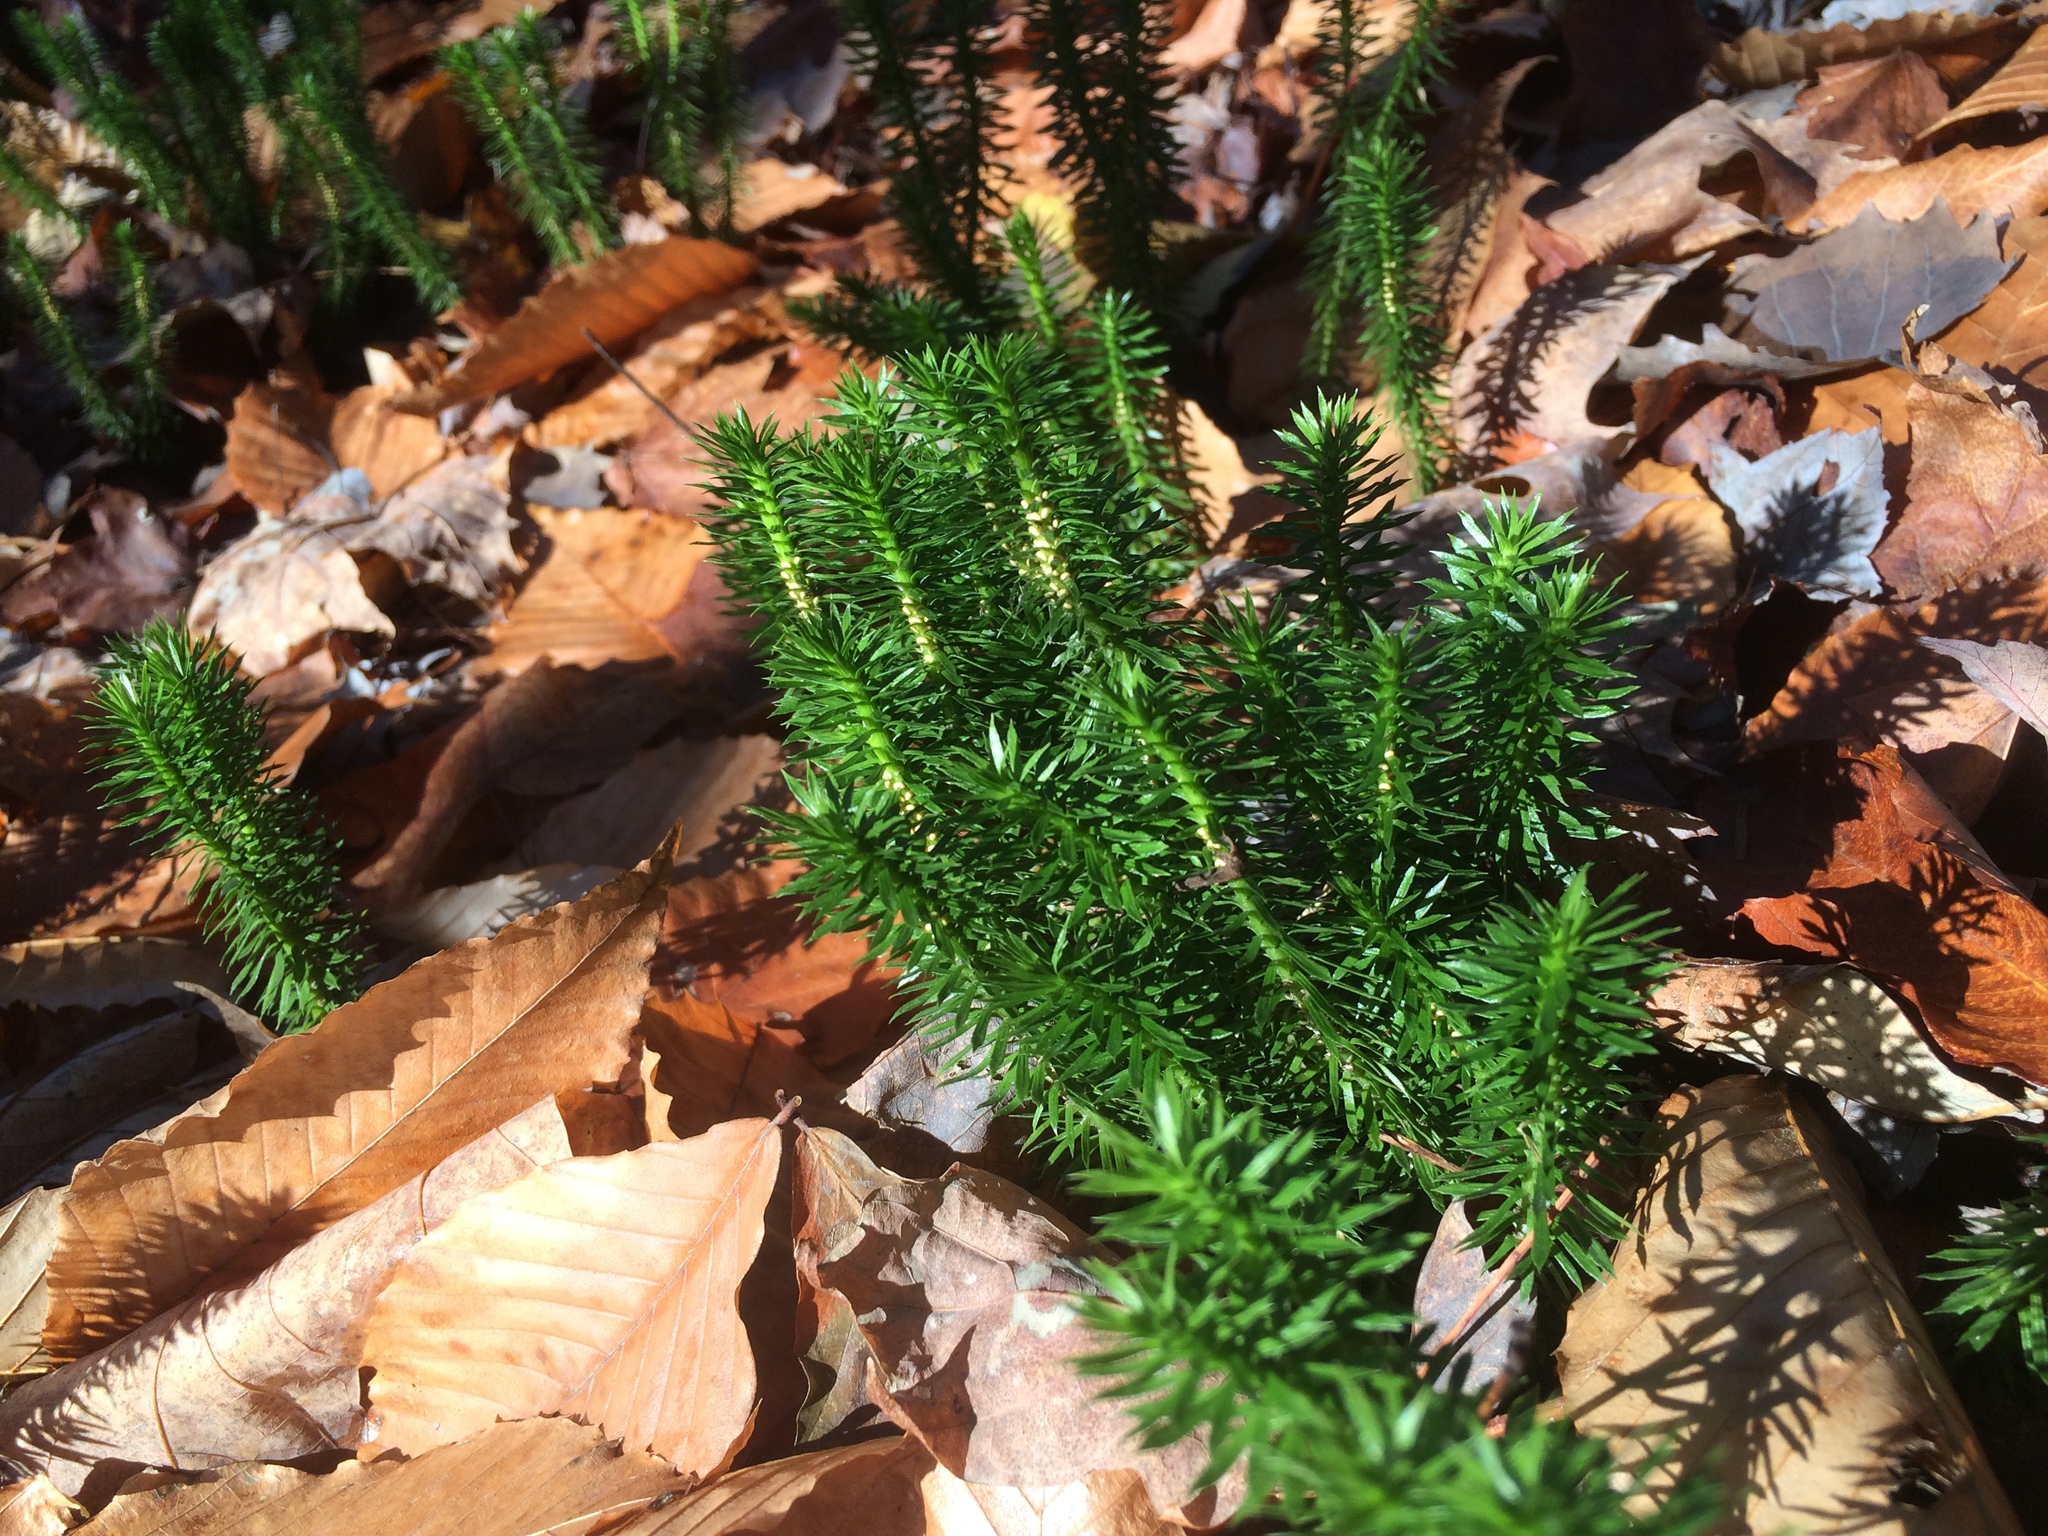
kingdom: Plantae
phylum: Tracheophyta
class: Lycopodiopsida
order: Lycopodiales
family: Lycopodiaceae
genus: Huperzia
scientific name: Huperzia lucidula
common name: Shining clubmoss
